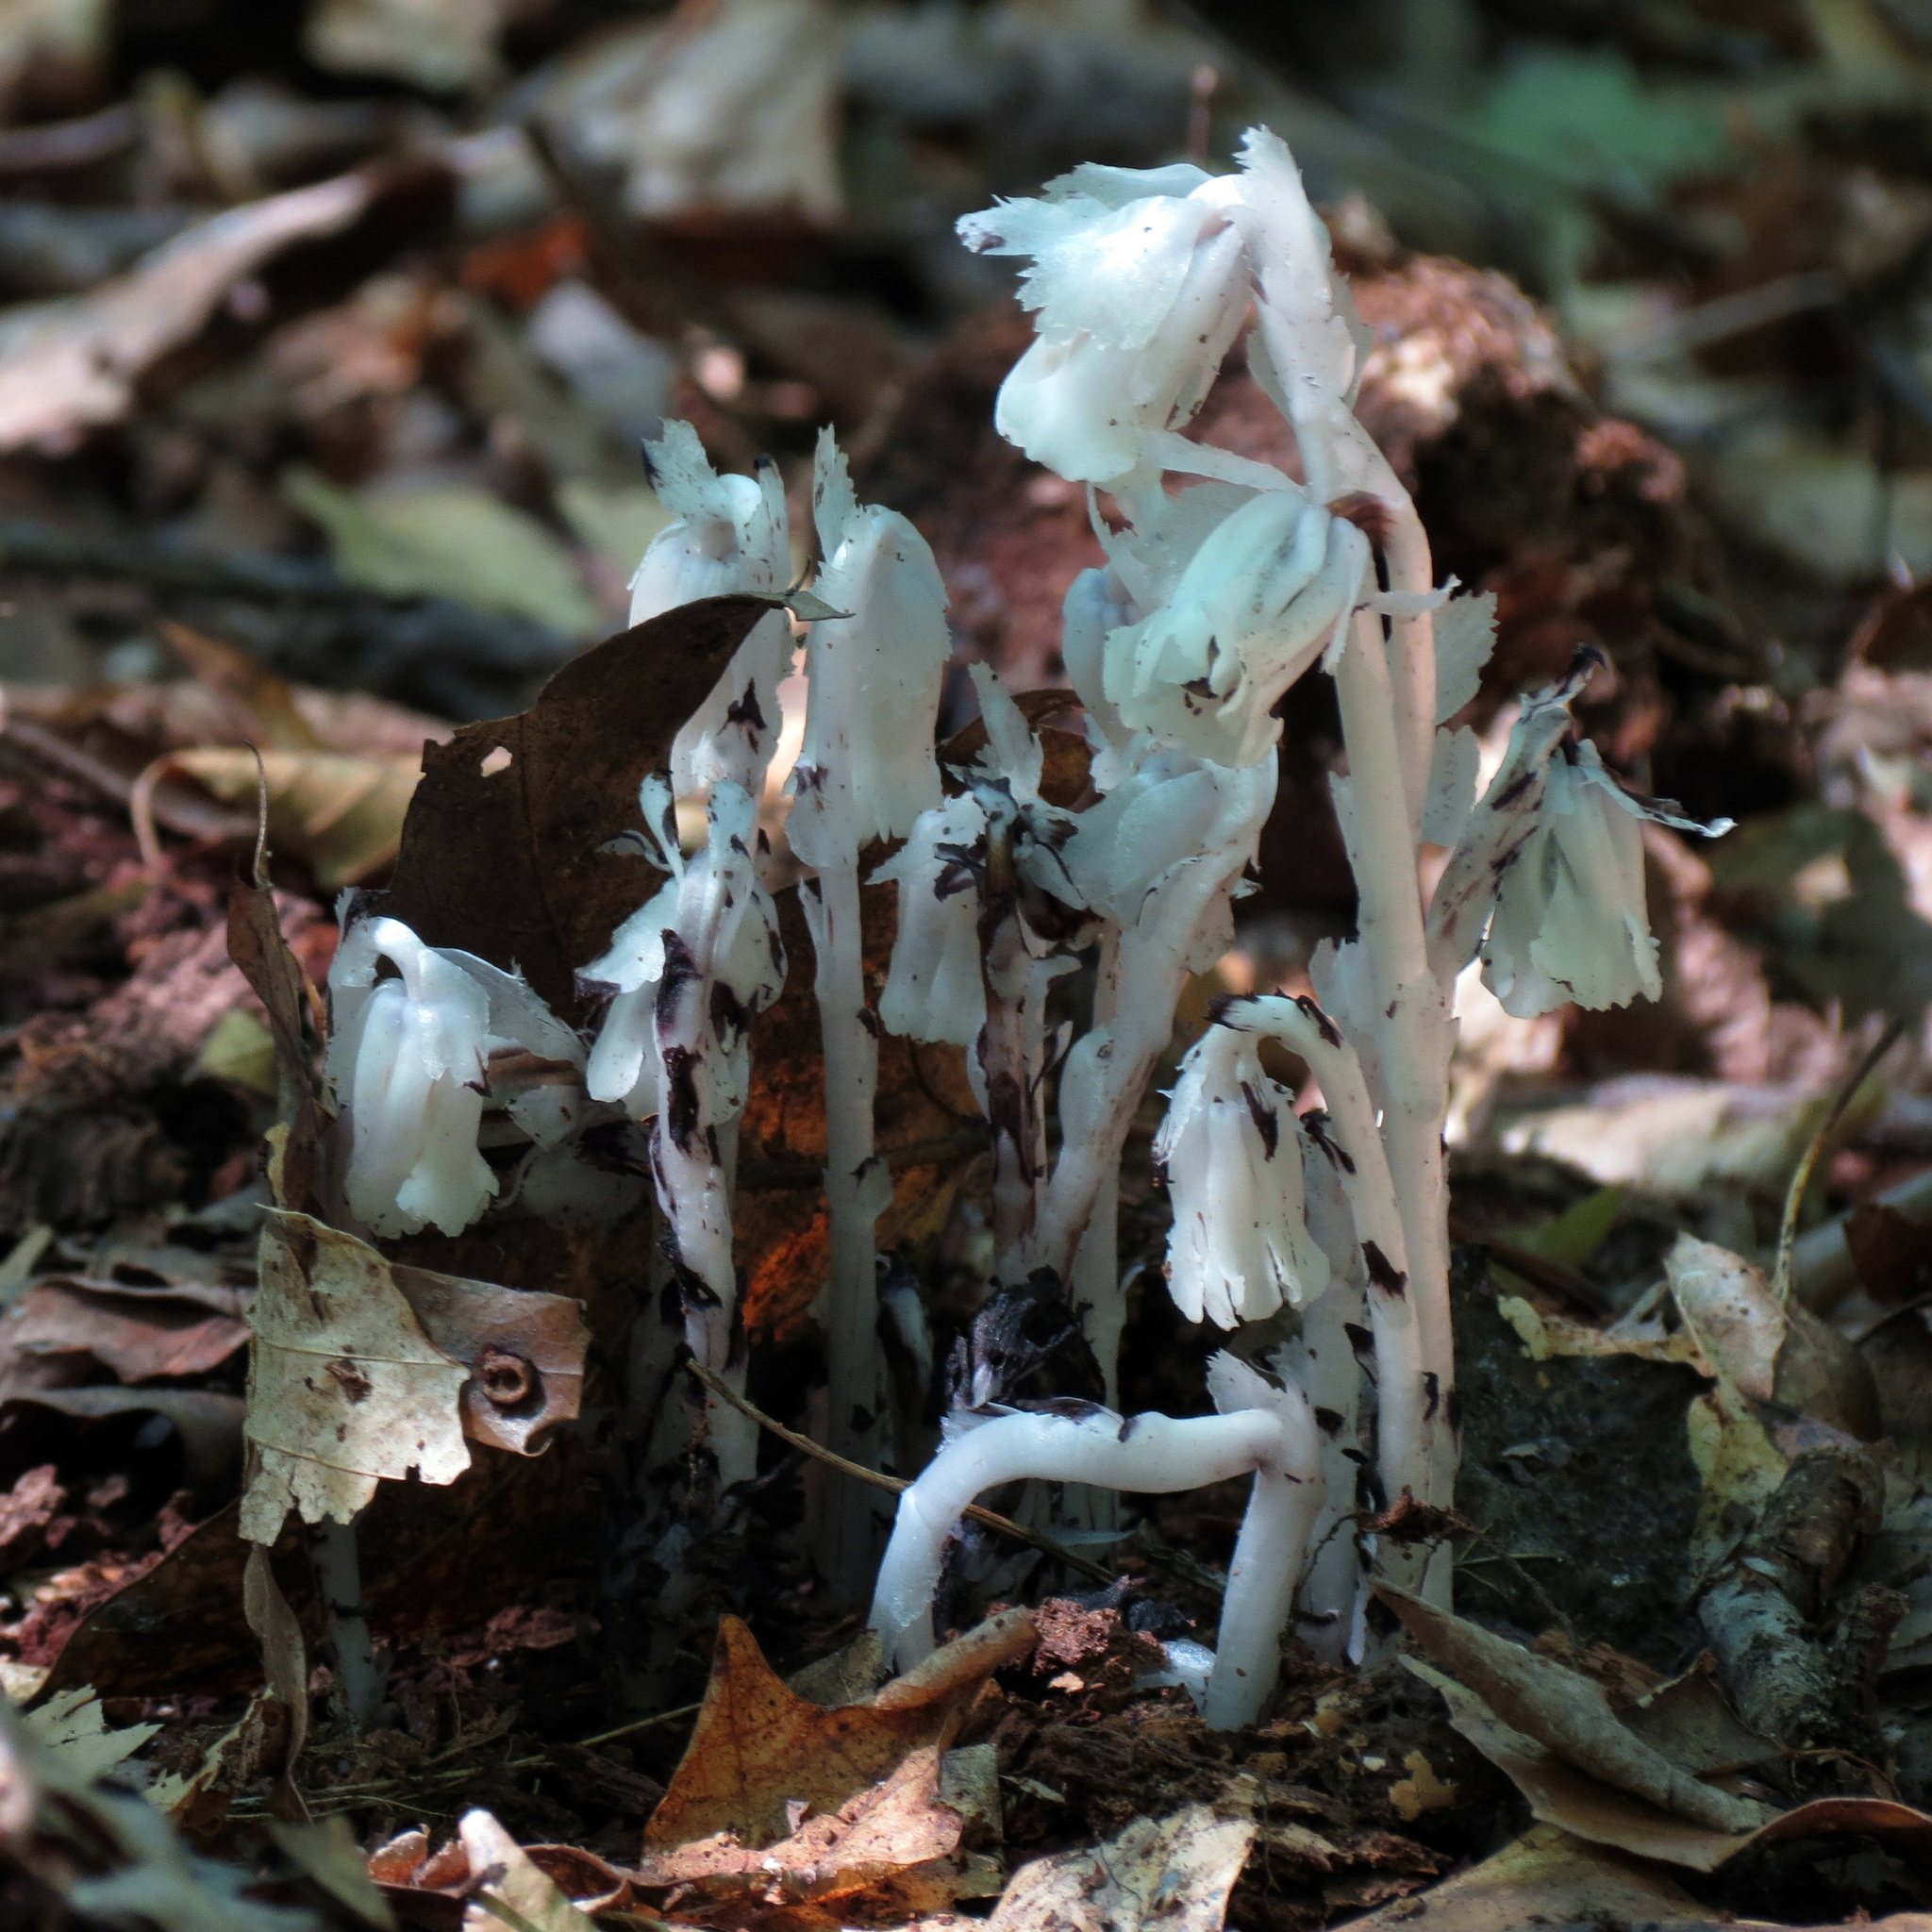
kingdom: Plantae
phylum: Tracheophyta
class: Magnoliopsida
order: Ericales
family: Ericaceae
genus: Monotropa
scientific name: Monotropa uniflora
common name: Convulsion root
